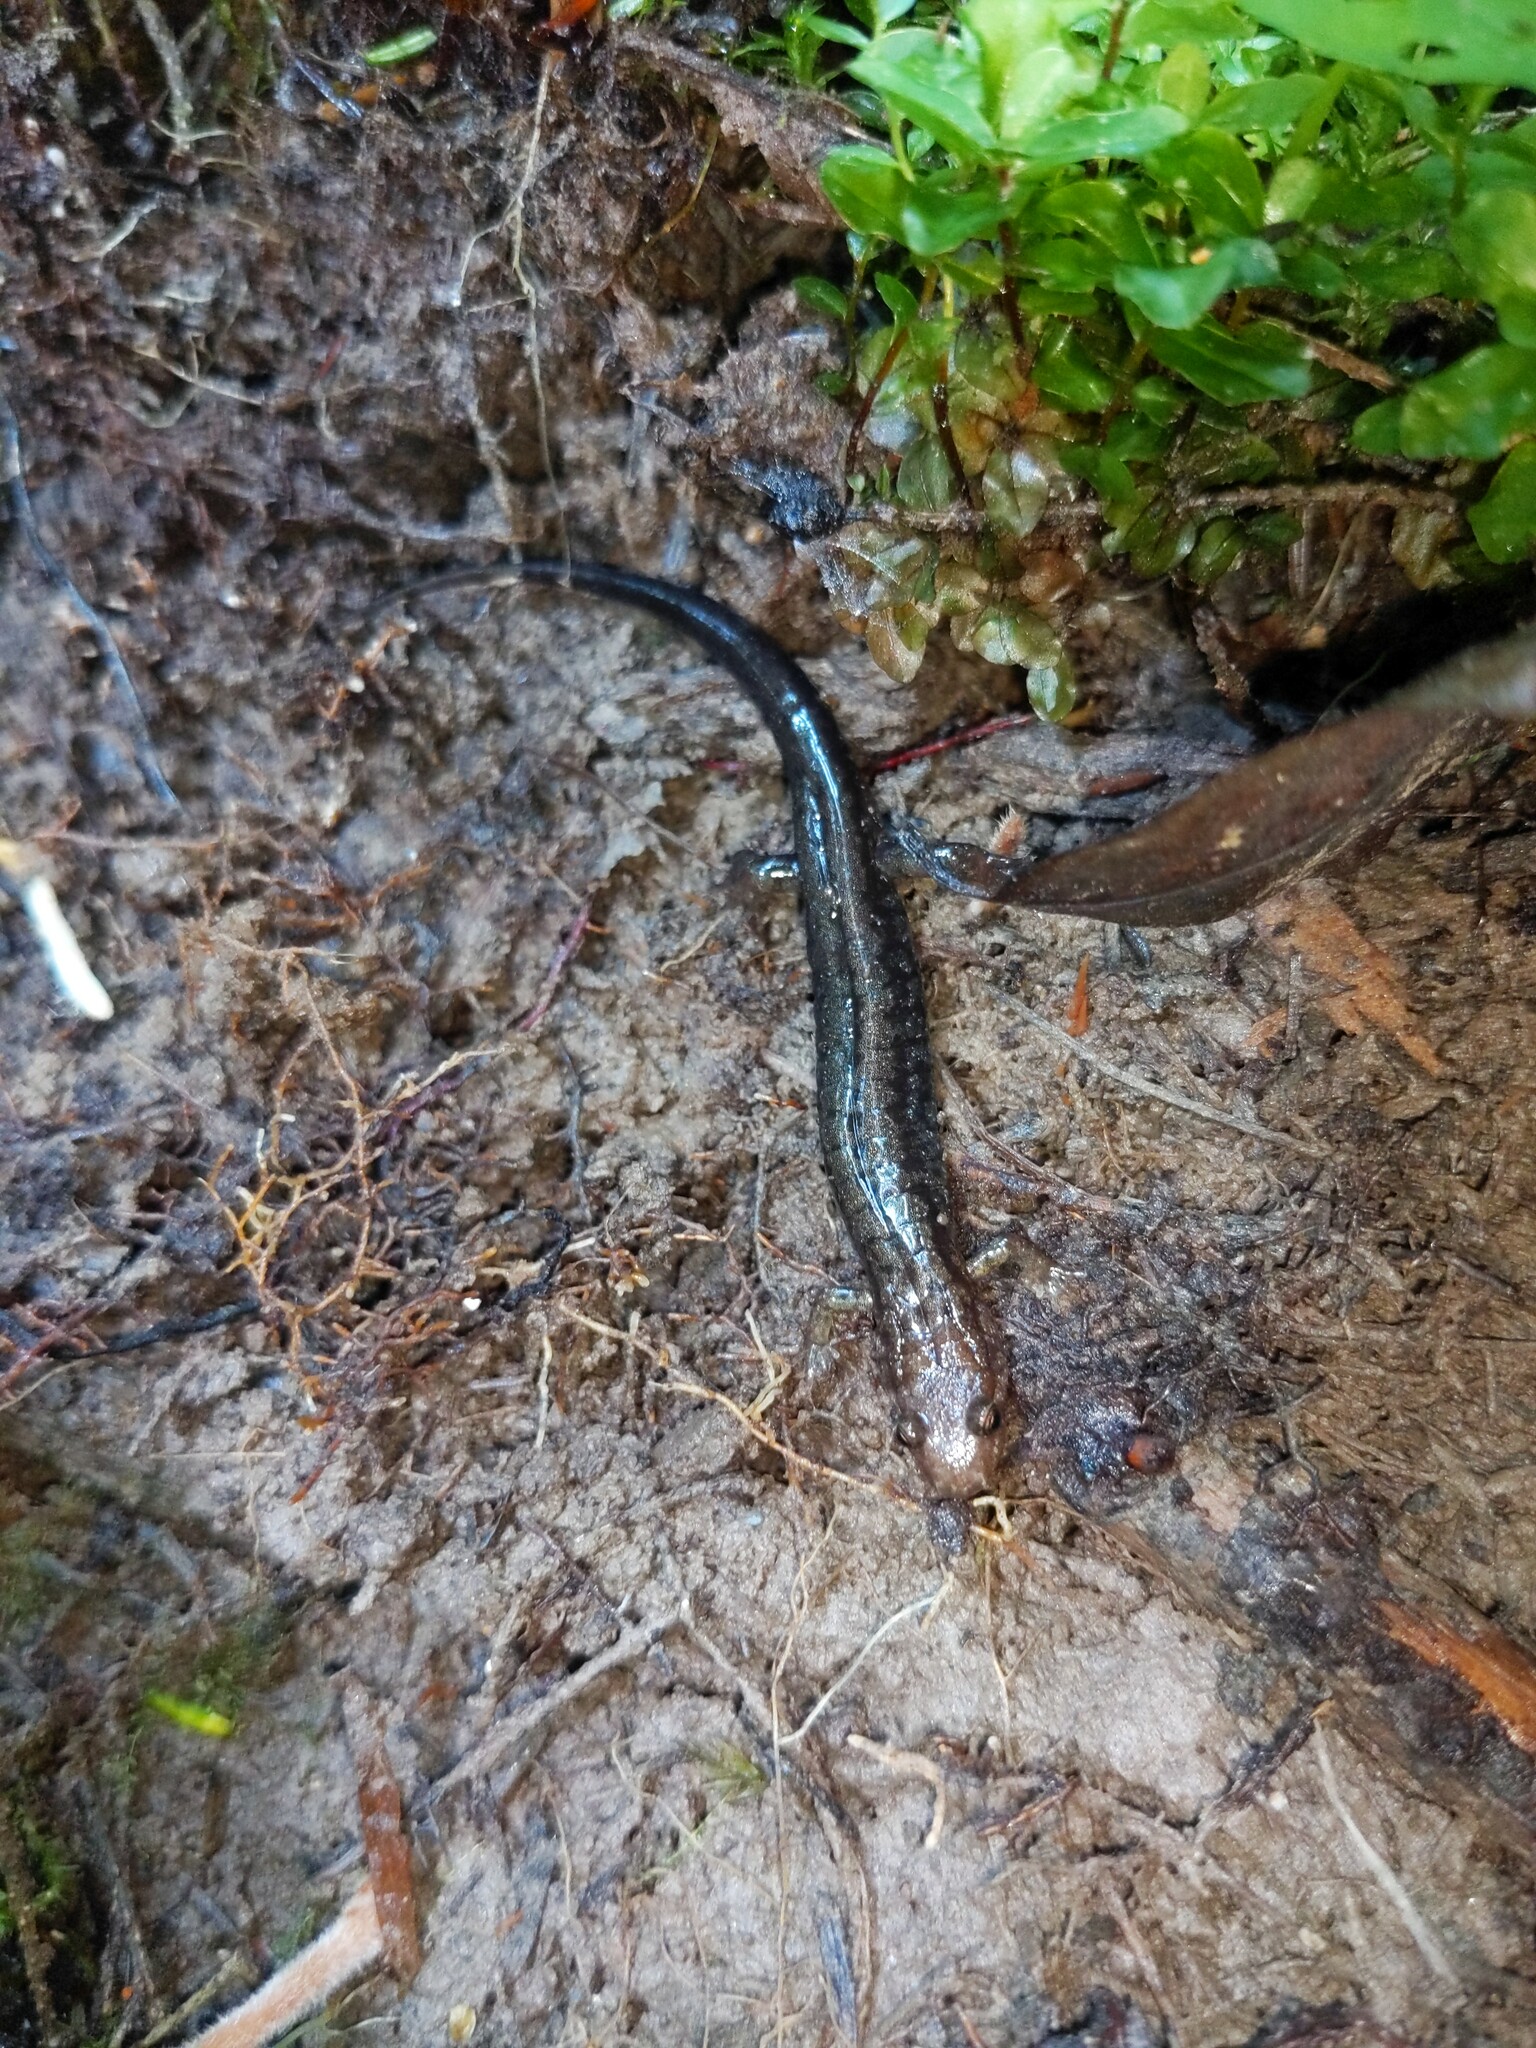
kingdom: Animalia
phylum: Chordata
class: Amphibia
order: Caudata
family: Plethodontidae
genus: Desmognathus
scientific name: Desmognathus ochrophaeus
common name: Allegheny mountain dusky salamander
